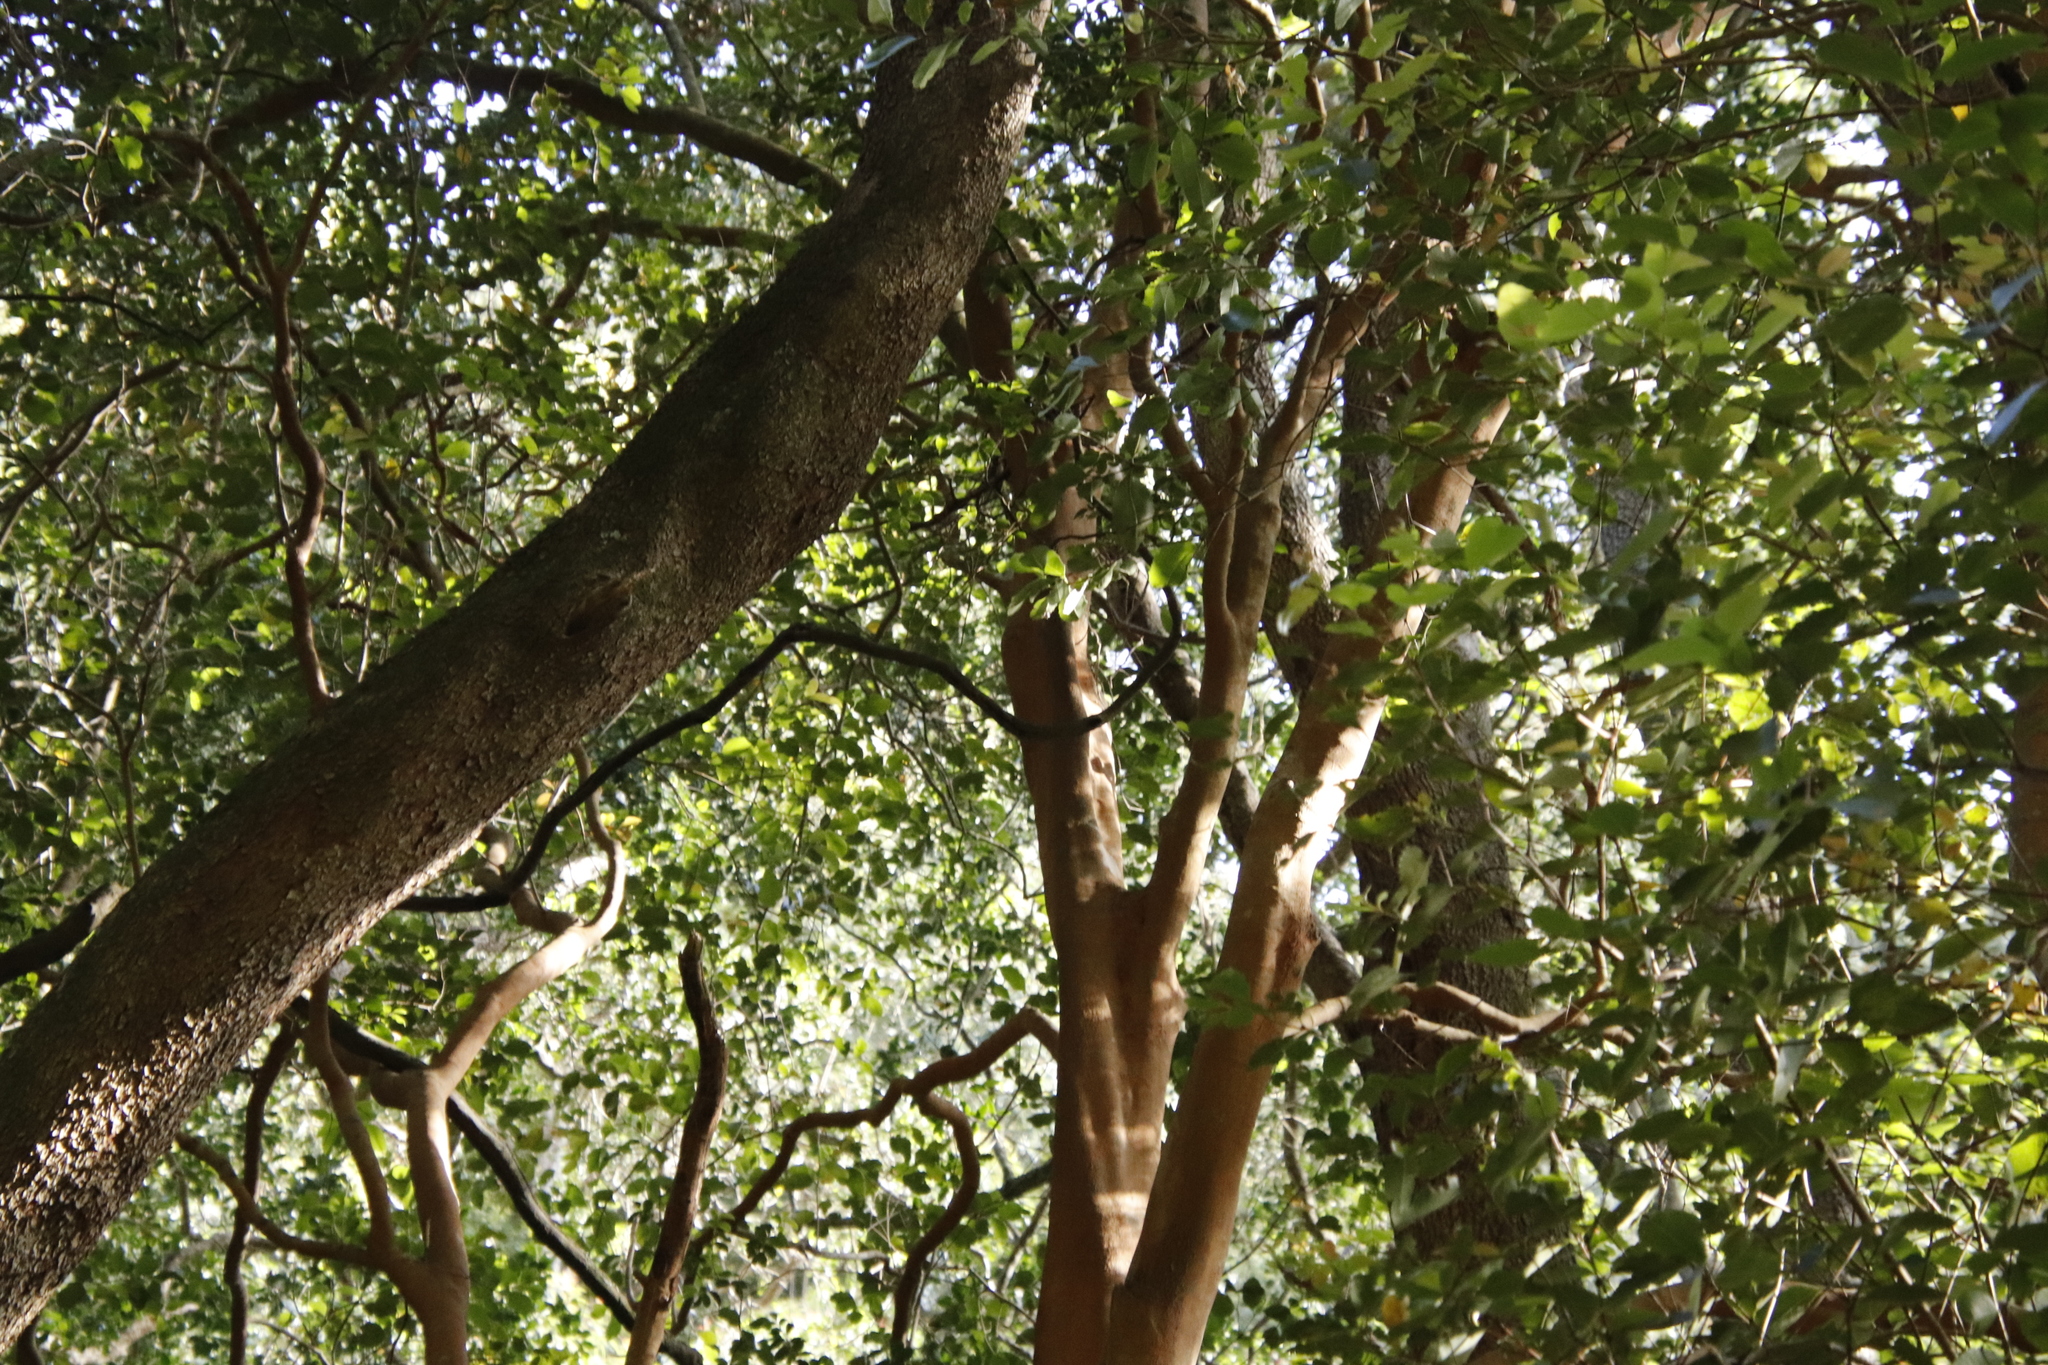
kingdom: Plantae
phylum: Tracheophyta
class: Magnoliopsida
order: Celastrales
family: Celastraceae
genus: Cassine
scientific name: Cassine peragua
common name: Cape saffron
